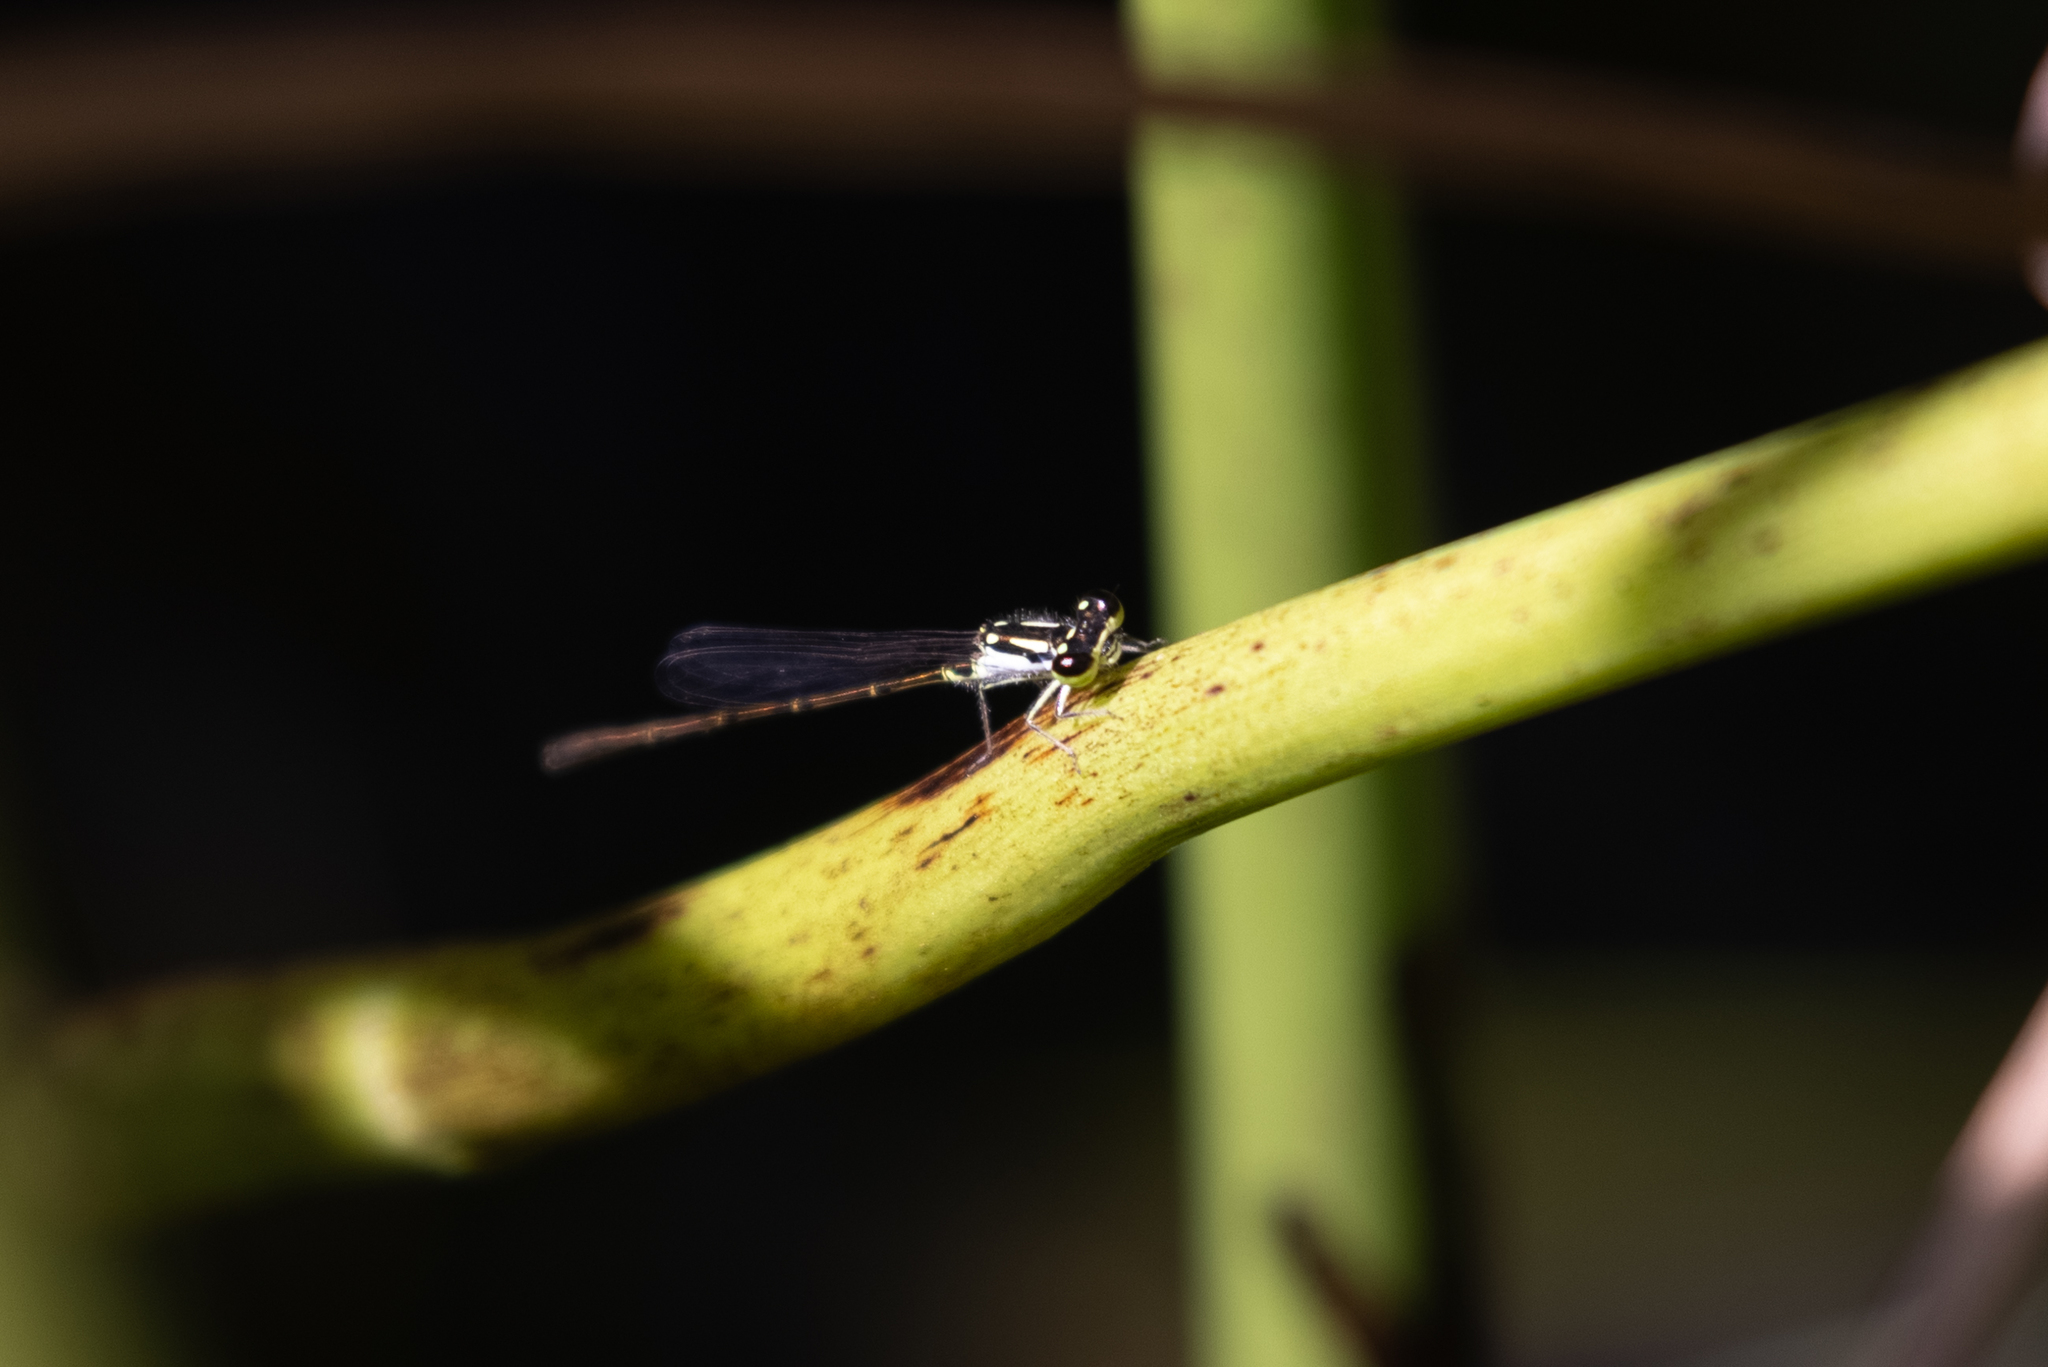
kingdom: Animalia
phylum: Arthropoda
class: Insecta
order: Odonata
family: Coenagrionidae
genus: Ischnura
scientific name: Ischnura posita
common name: Fragile forktail
